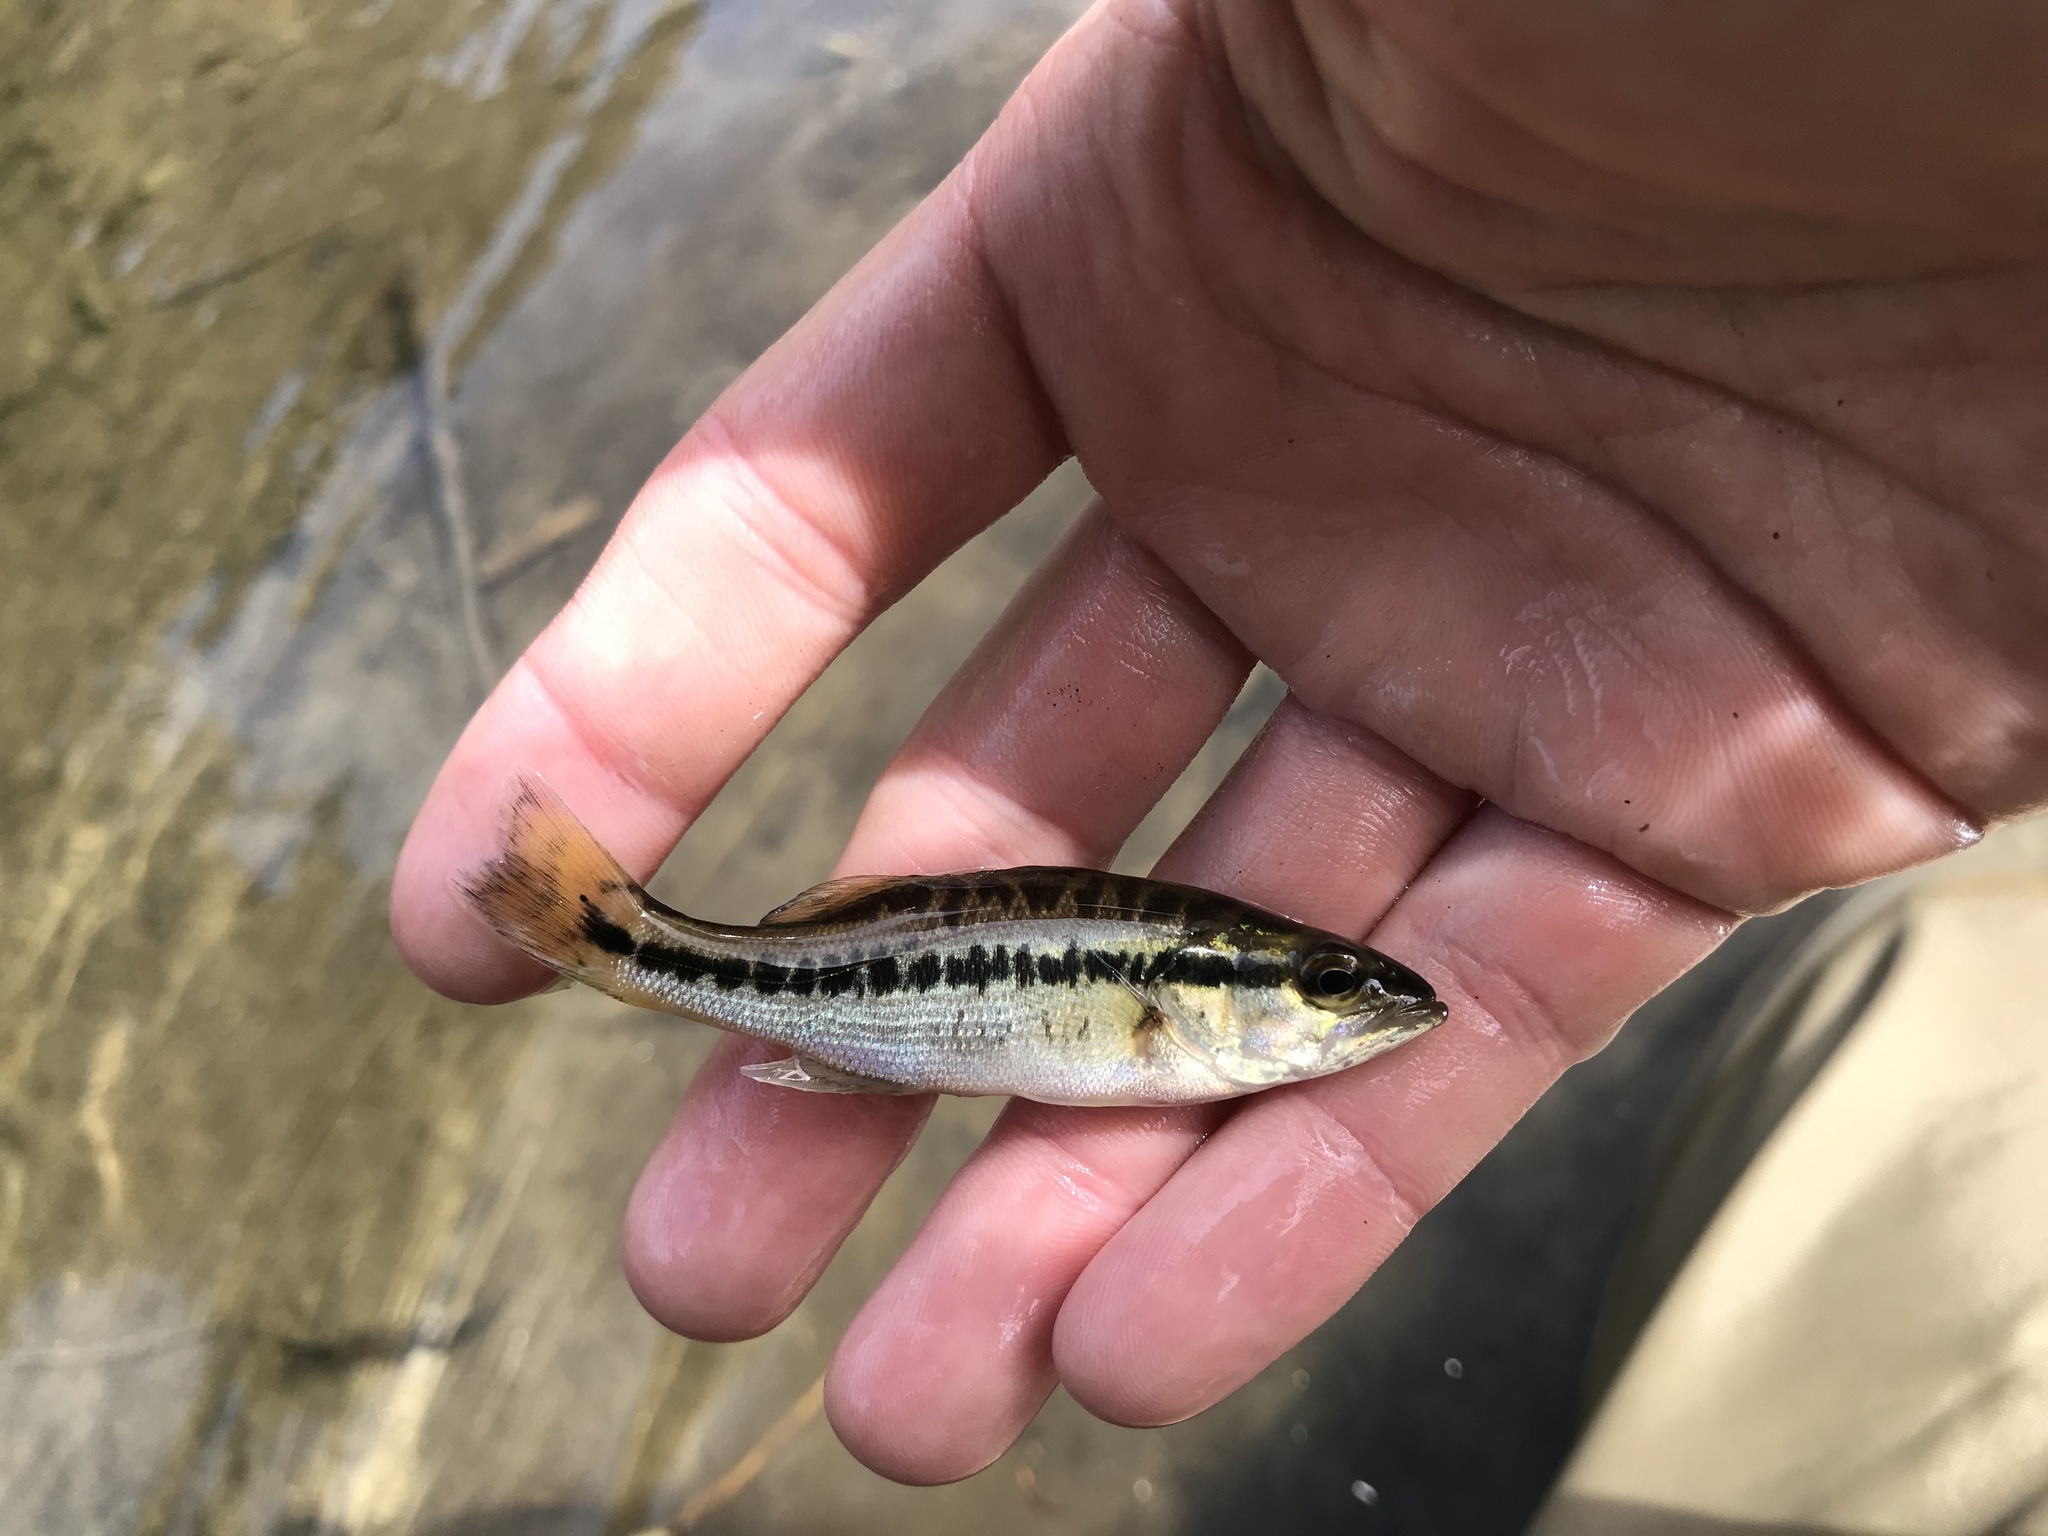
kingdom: Animalia
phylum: Chordata
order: Perciformes
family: Centrarchidae
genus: Micropterus
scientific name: Micropterus punctulatus
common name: Spotted bass
